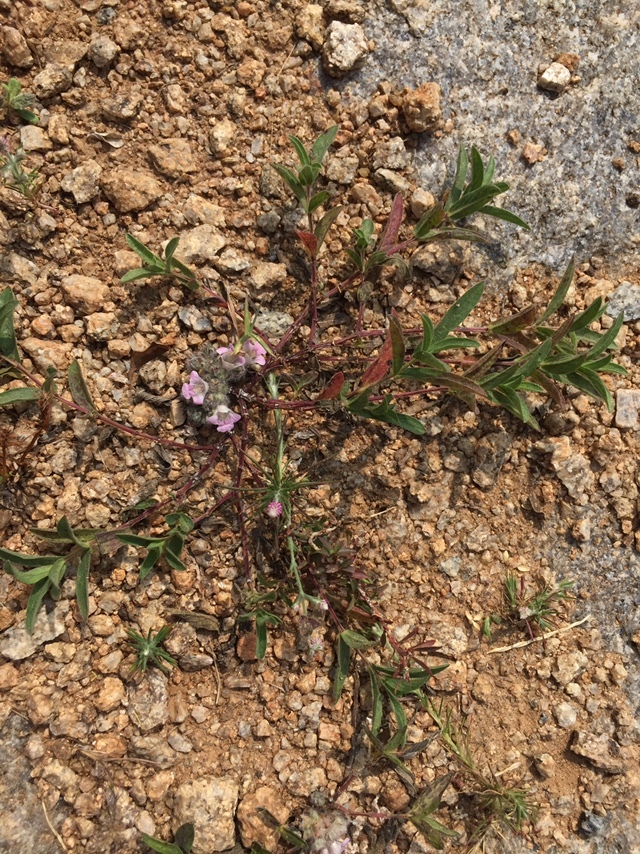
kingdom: Plantae
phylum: Tracheophyta
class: Magnoliopsida
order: Lamiales
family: Acanthaceae
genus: Lepidagathis
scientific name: Lepidagathis cristata
